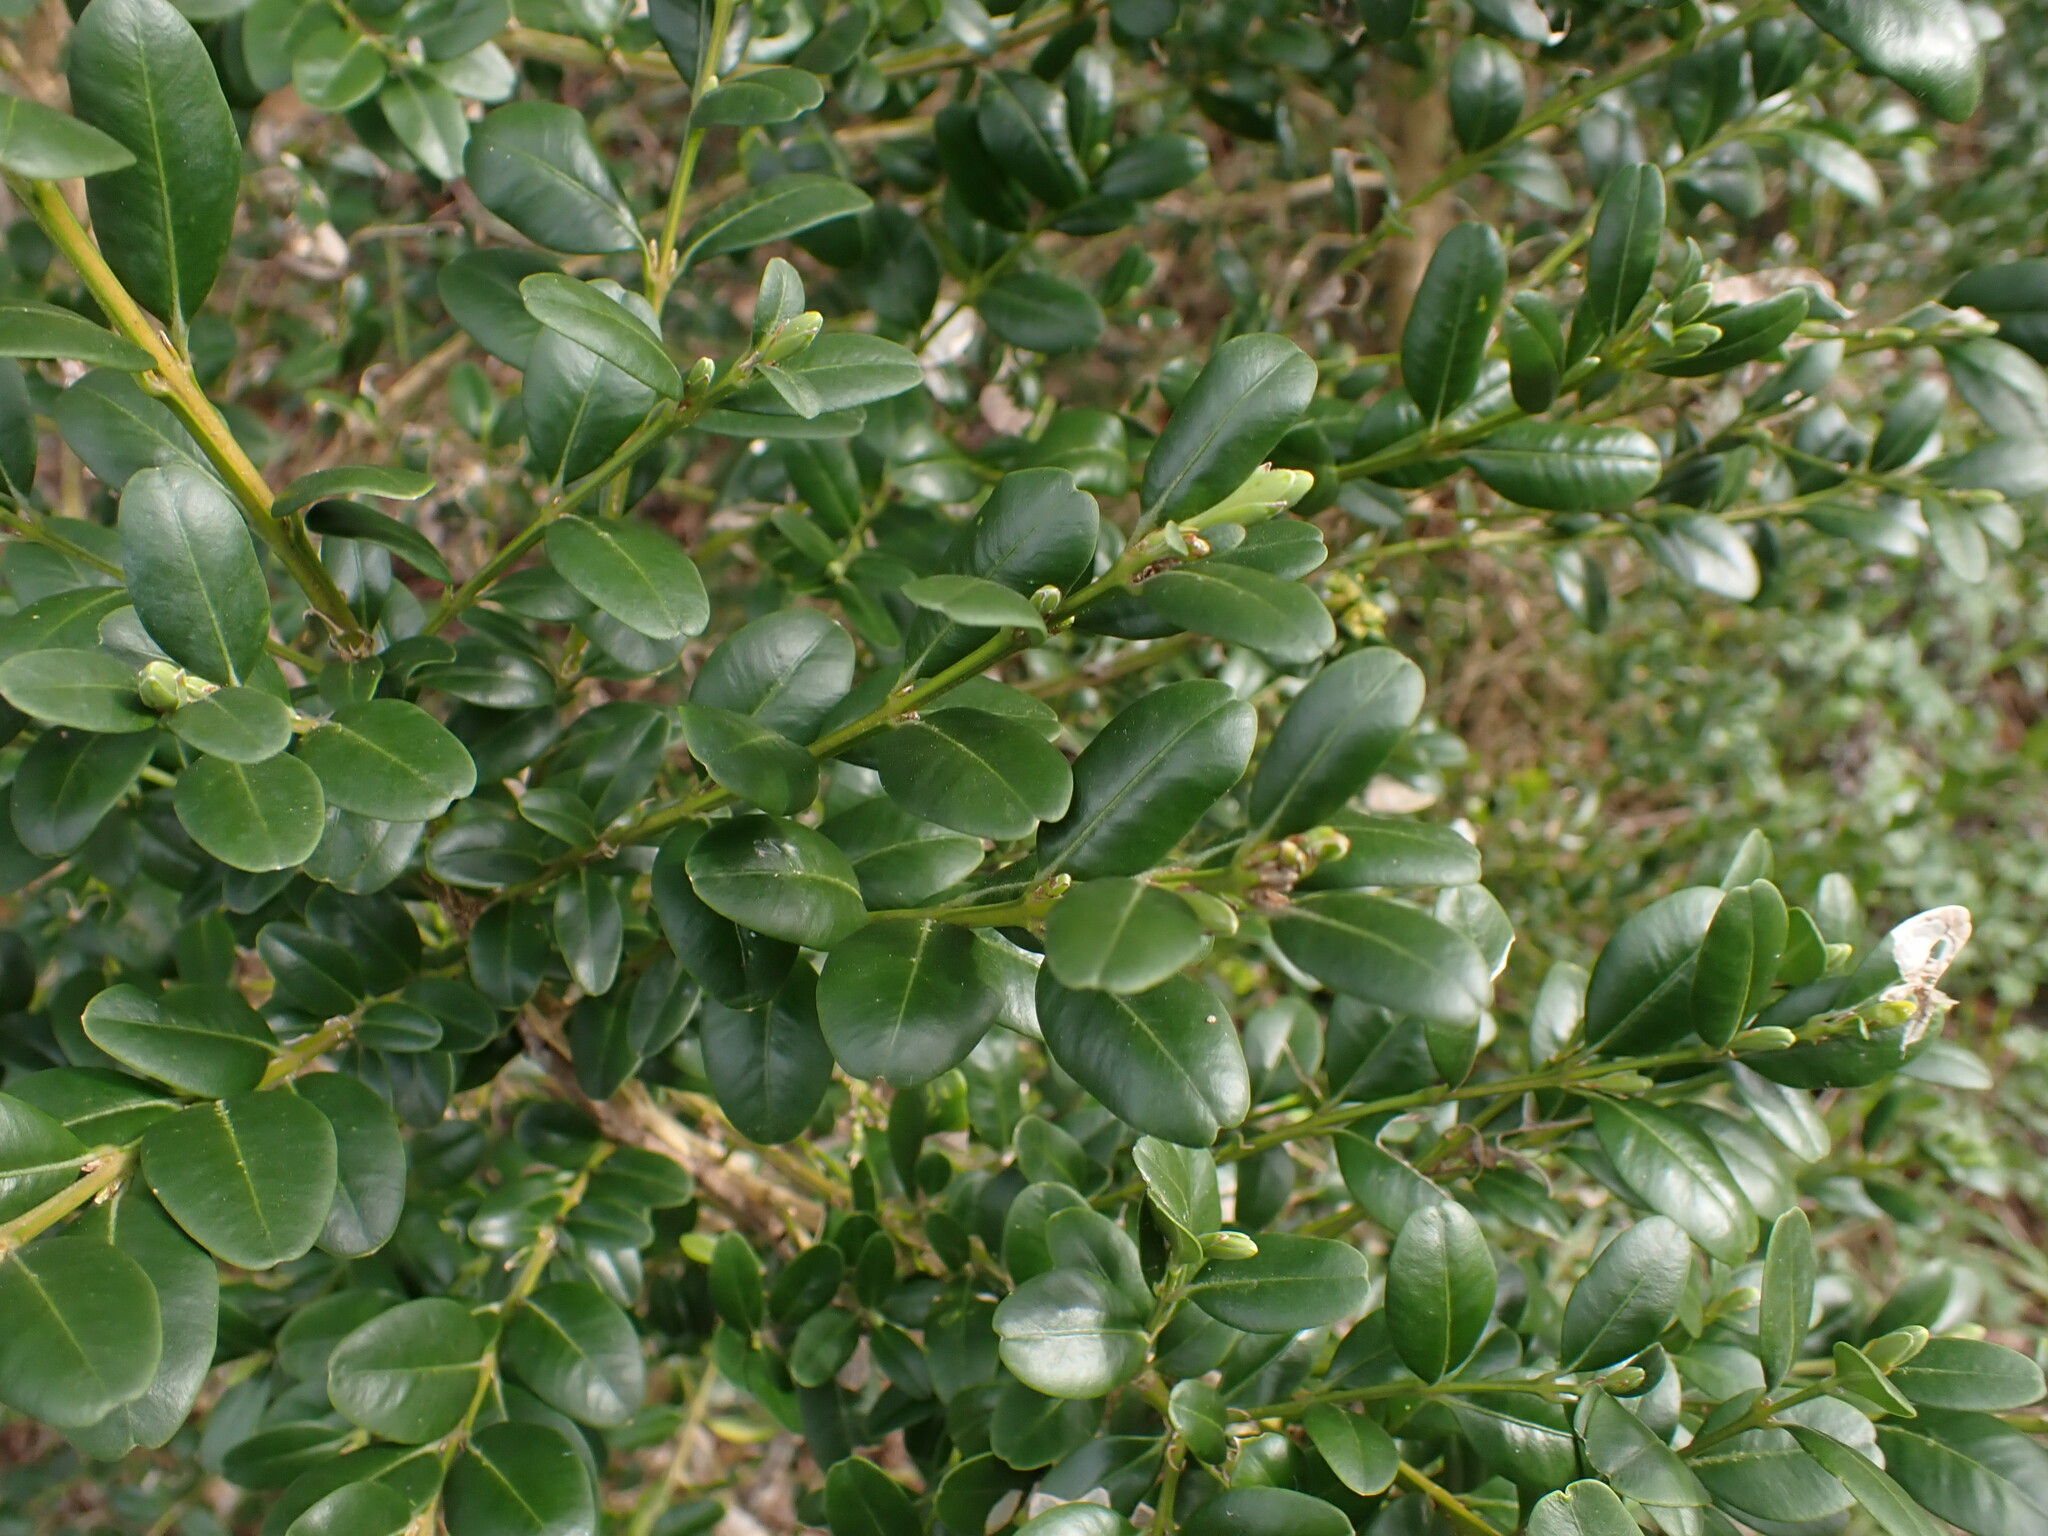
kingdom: Plantae
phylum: Tracheophyta
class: Magnoliopsida
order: Buxales
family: Buxaceae
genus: Buxus
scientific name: Buxus sempervirens
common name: Box
